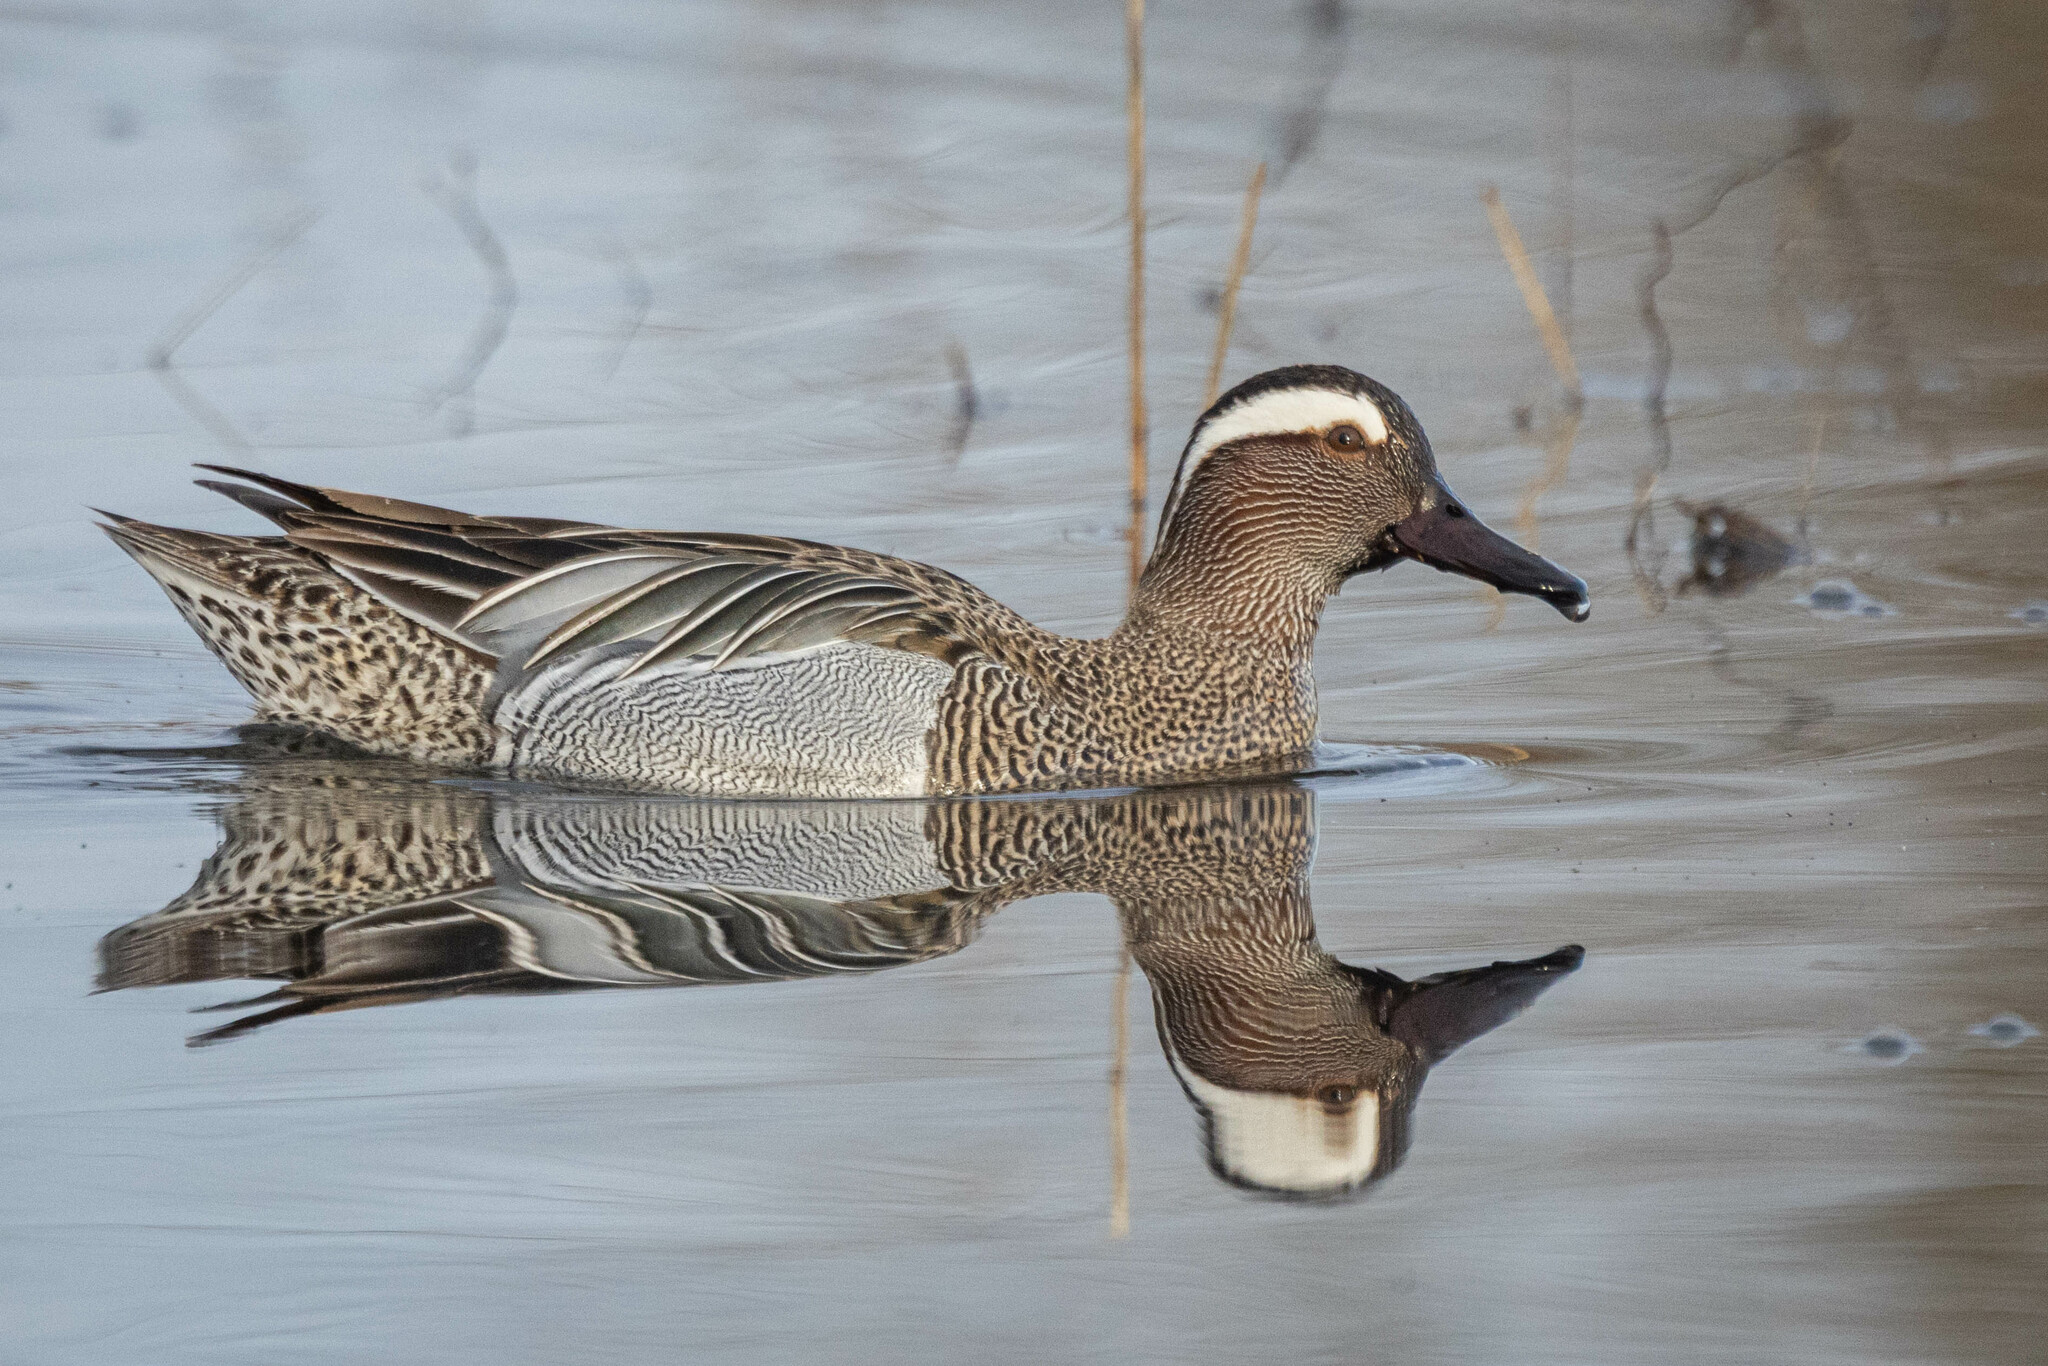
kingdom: Animalia
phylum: Chordata
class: Aves
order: Anseriformes
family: Anatidae
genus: Spatula
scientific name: Spatula querquedula
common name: Garganey
